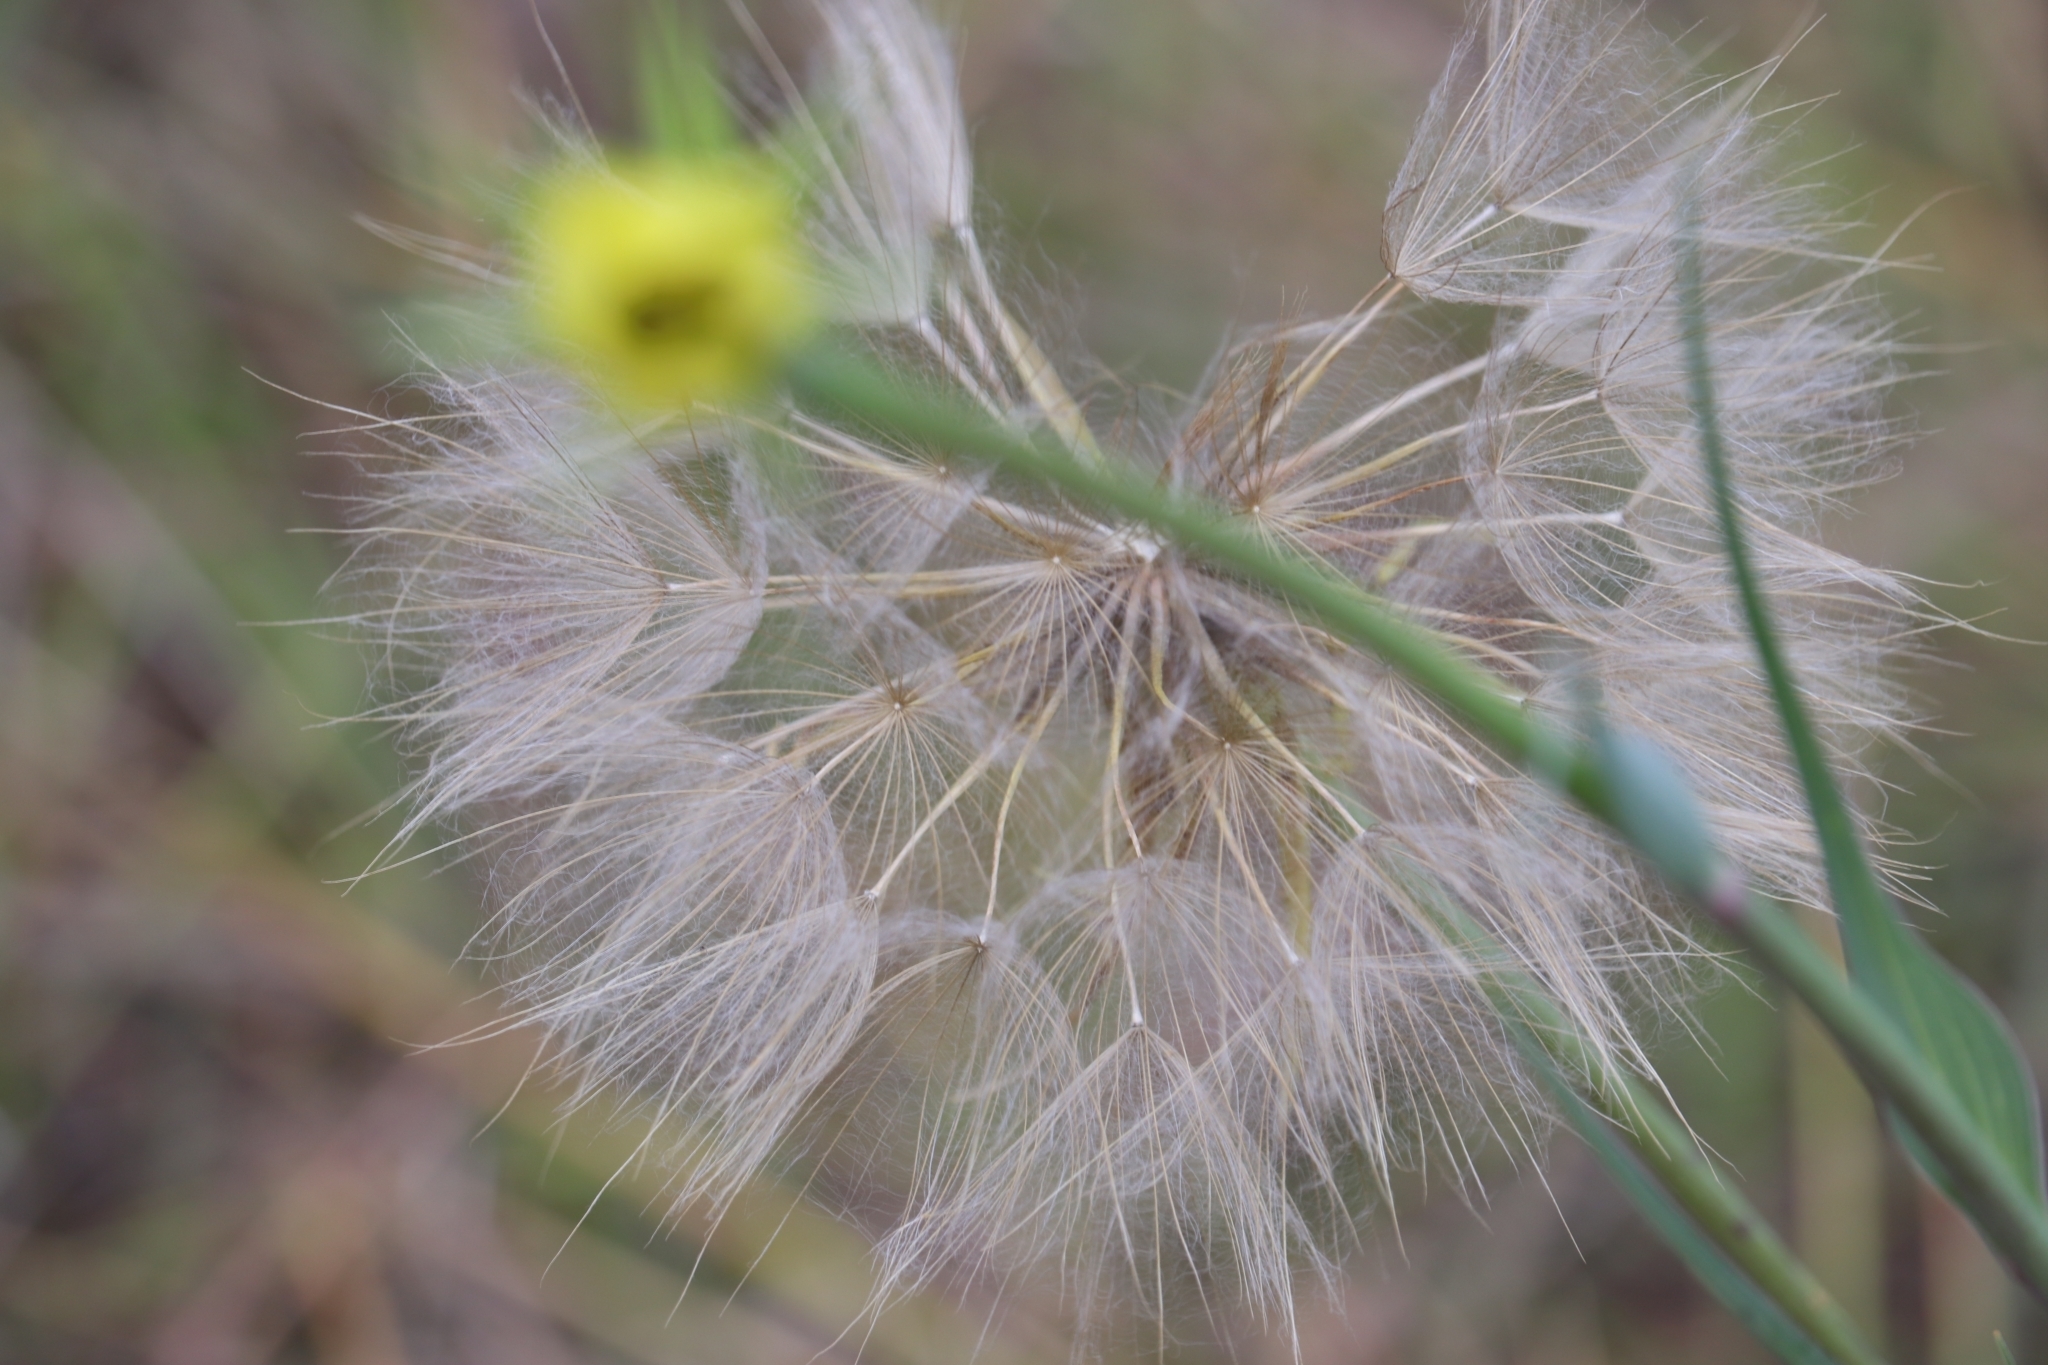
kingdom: Plantae
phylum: Tracheophyta
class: Magnoliopsida
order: Asterales
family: Asteraceae
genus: Tragopogon
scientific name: Tragopogon dubius
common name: Yellow salsify
